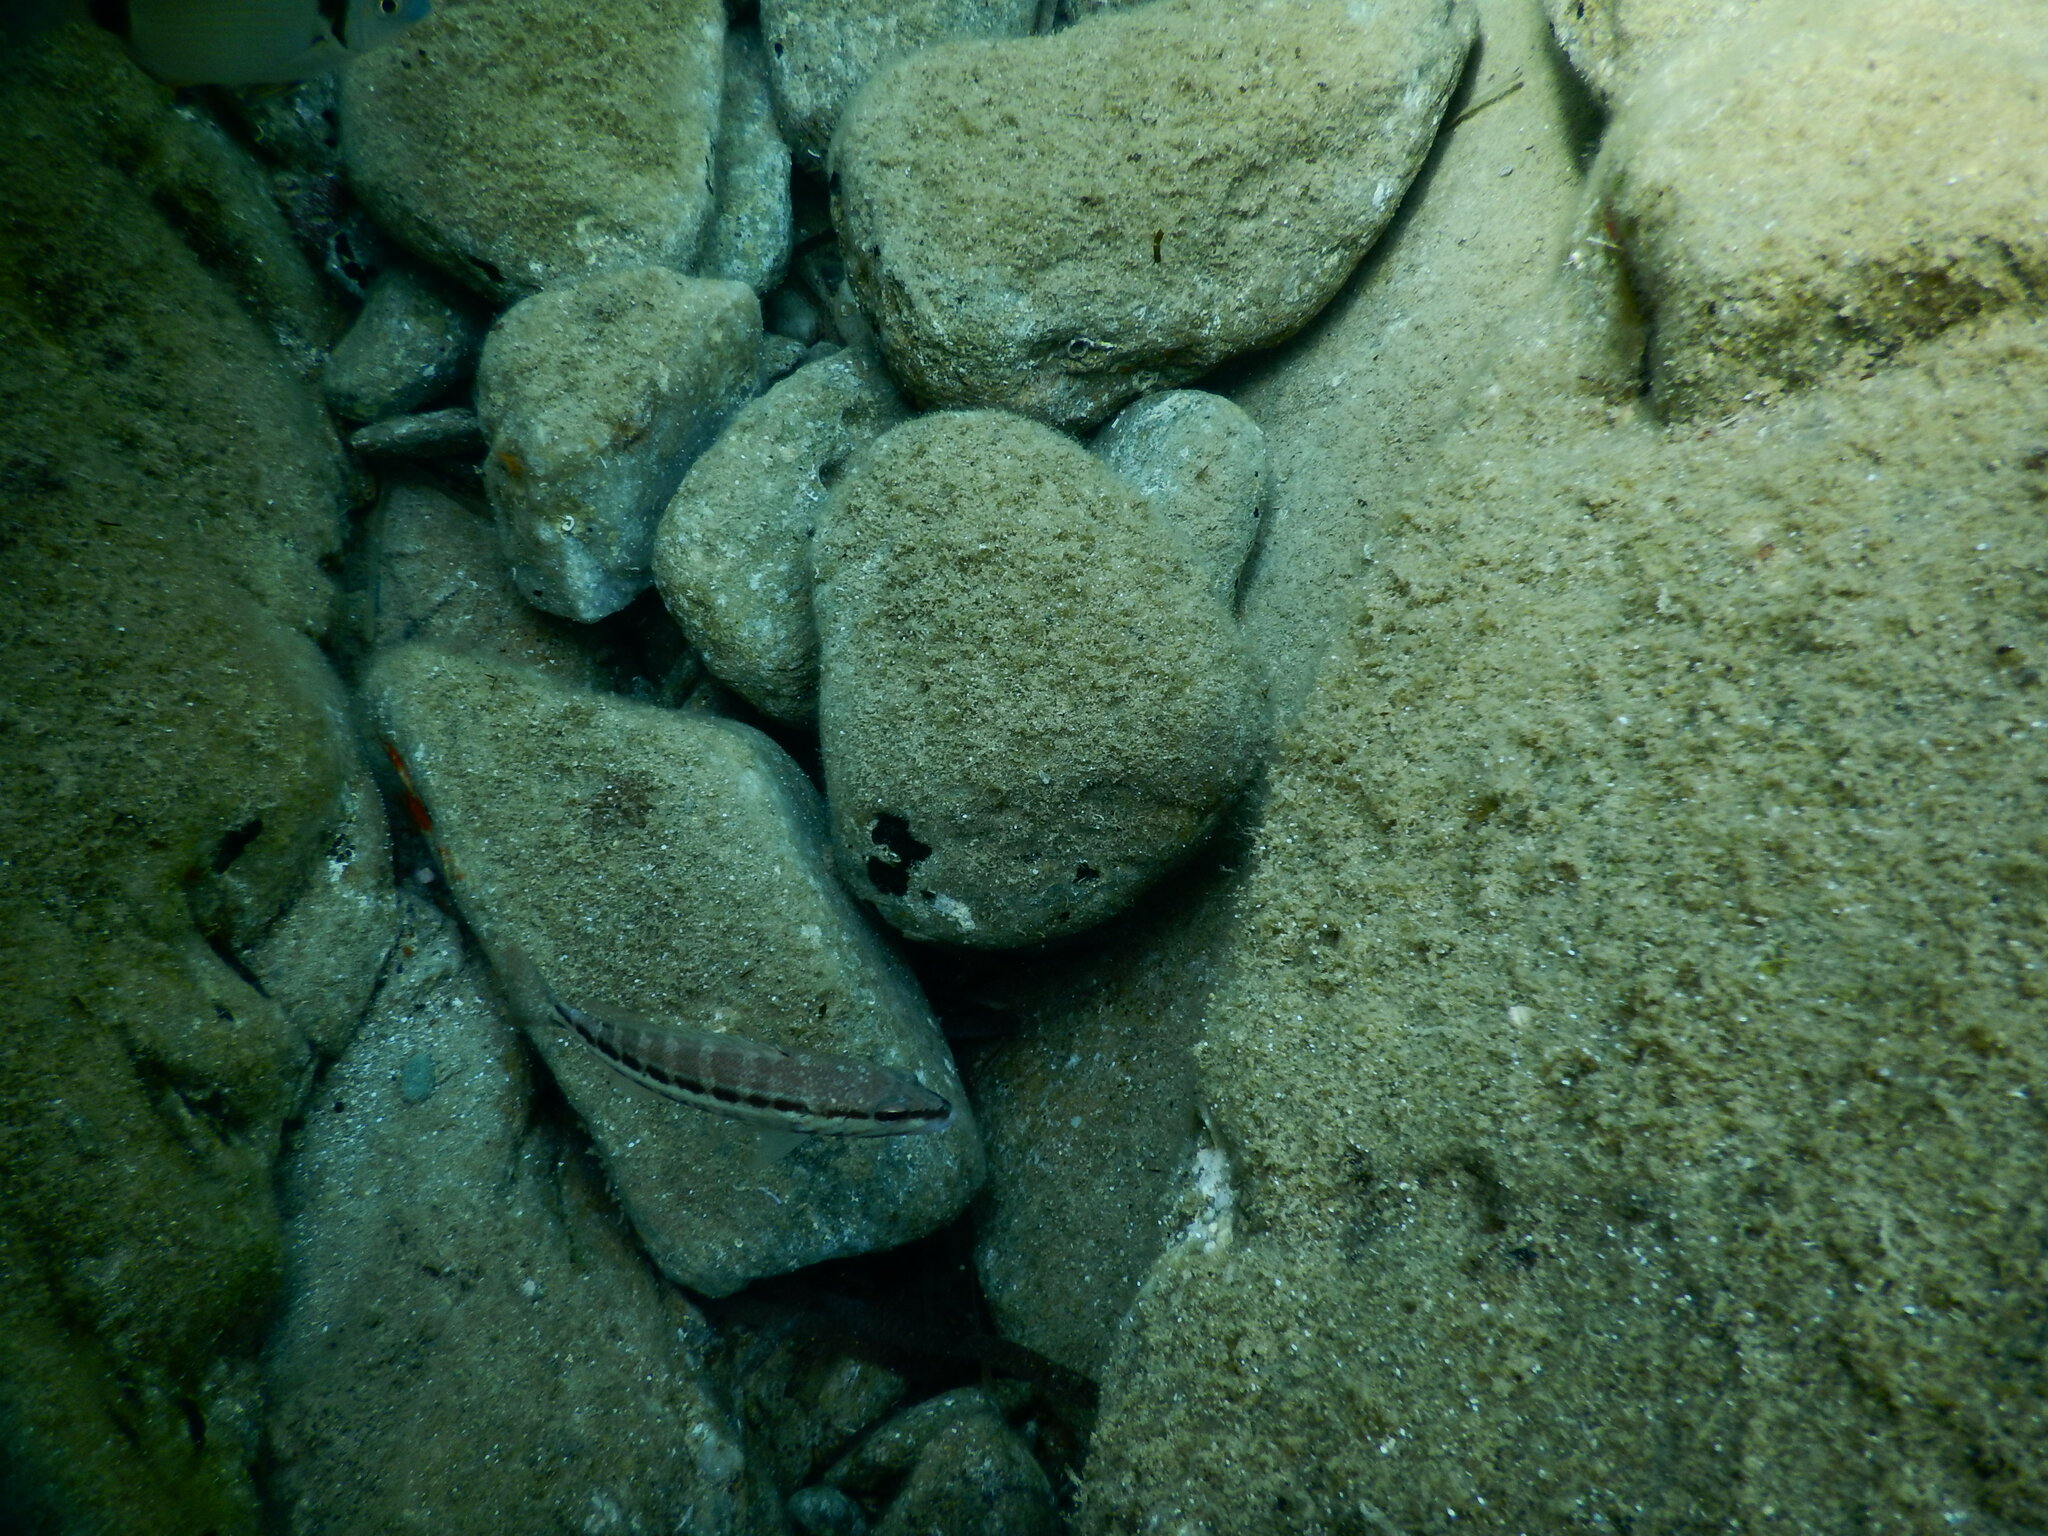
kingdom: Animalia
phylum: Chordata
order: Perciformes
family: Serranidae
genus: Serranus
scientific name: Serranus cabrilla
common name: Comber
